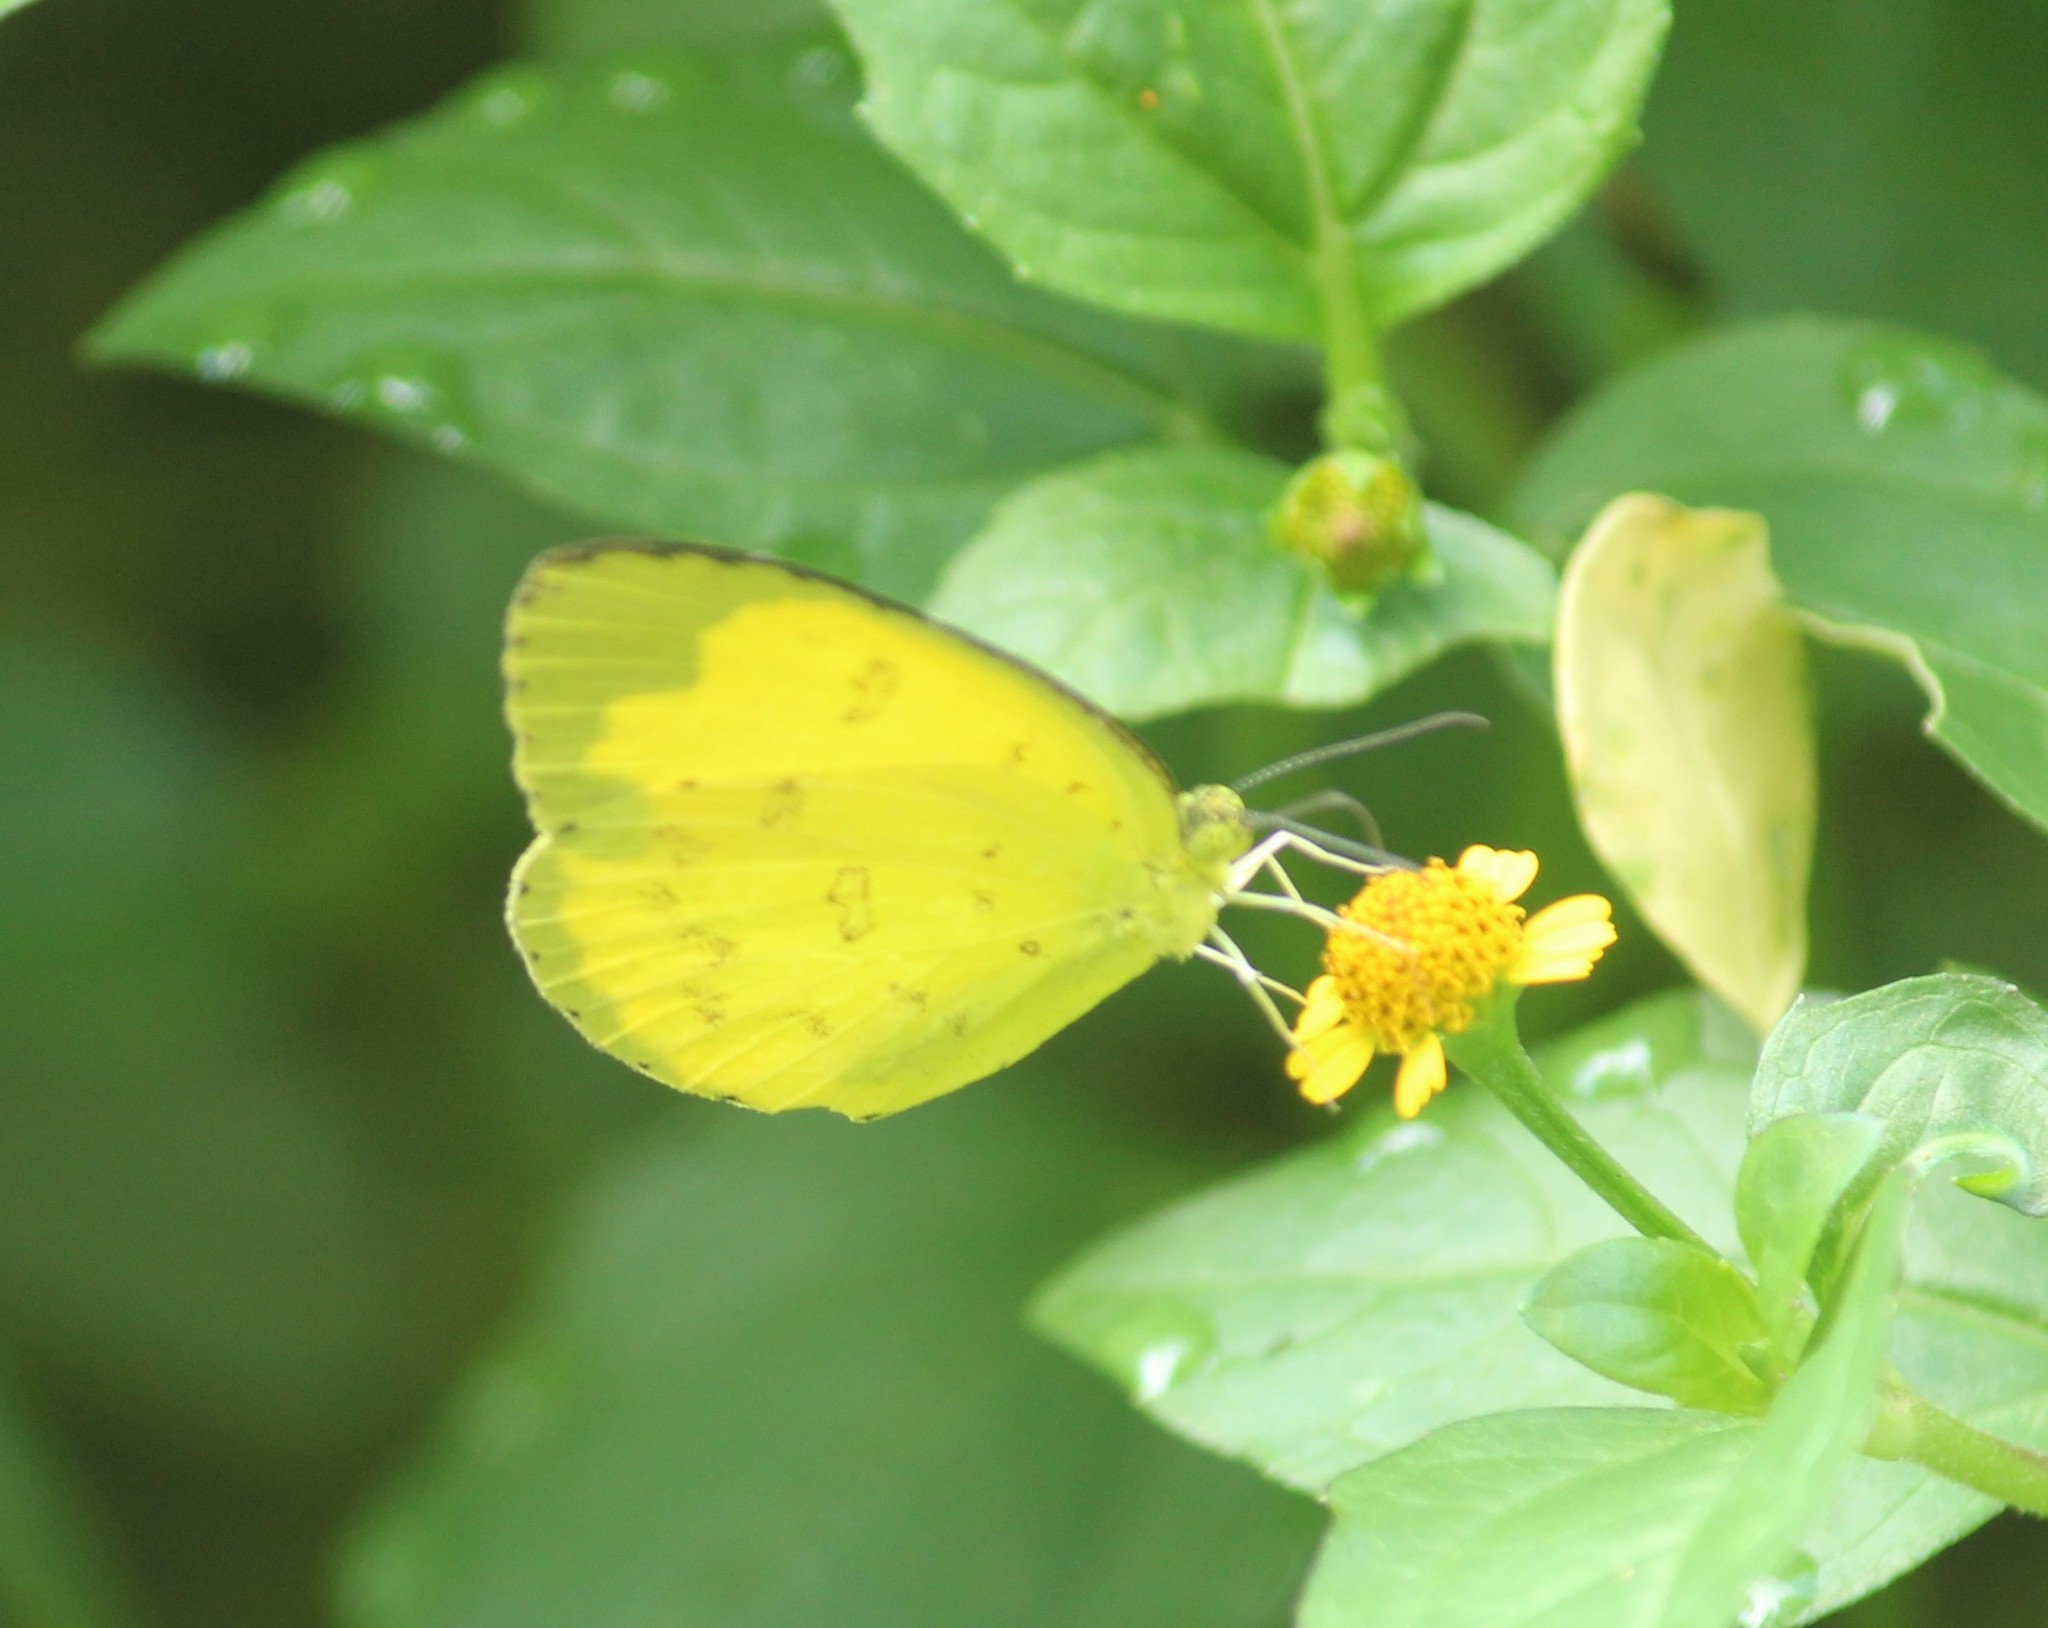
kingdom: Animalia
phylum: Arthropoda
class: Insecta
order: Lepidoptera
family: Pieridae
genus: Eurema
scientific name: Eurema hecabe
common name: Pale grass yellow
